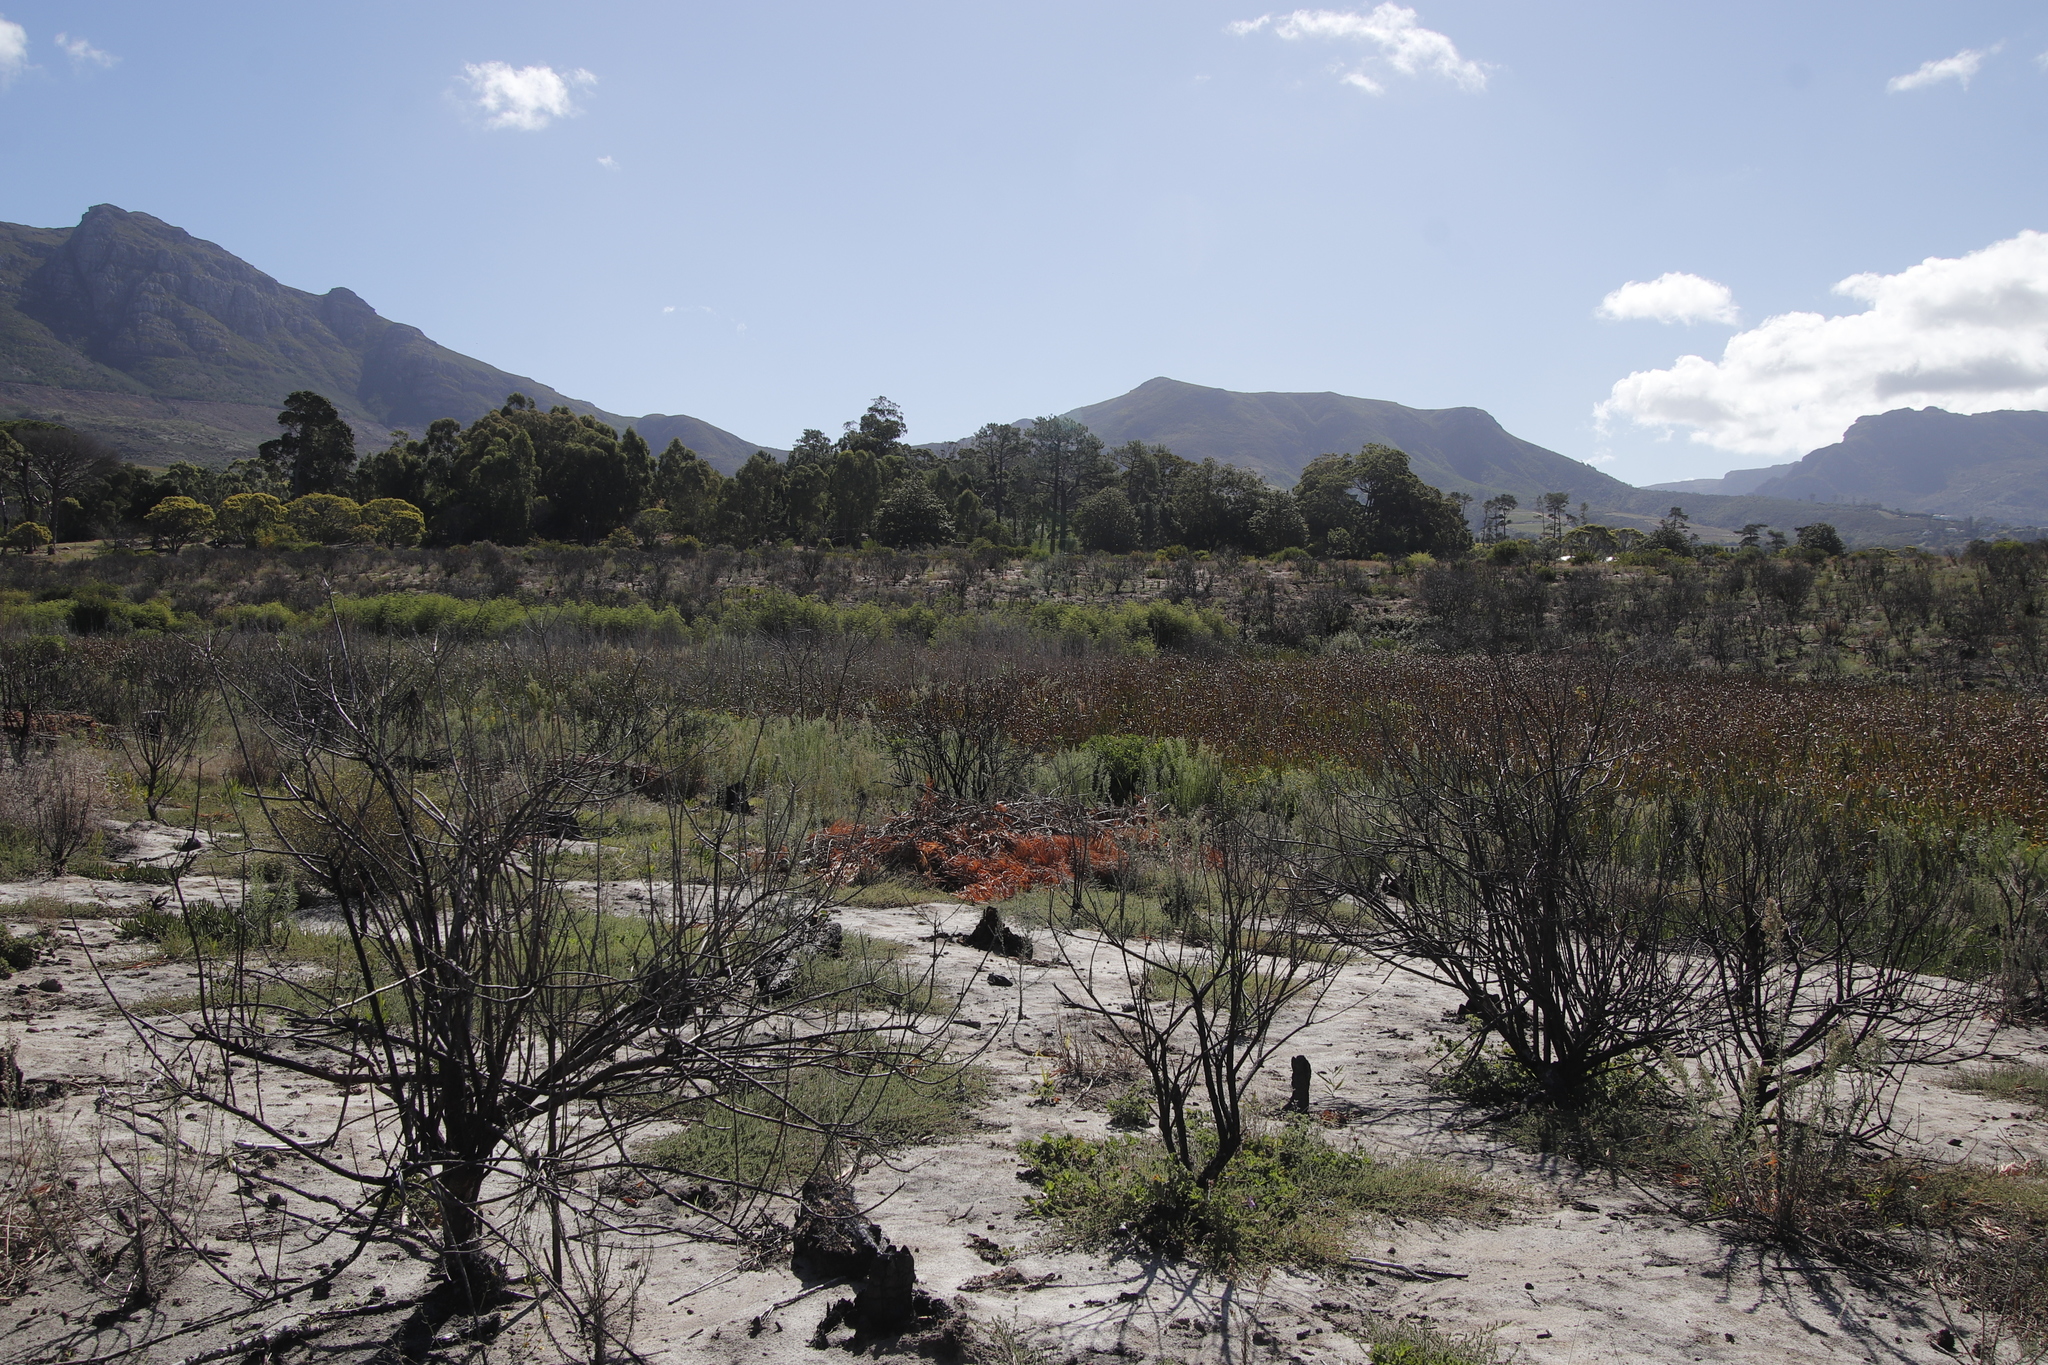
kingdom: Plantae
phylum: Tracheophyta
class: Magnoliopsida
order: Fabales
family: Fabaceae
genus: Paraserianthes
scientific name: Paraserianthes lophantha
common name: Plume albizia
